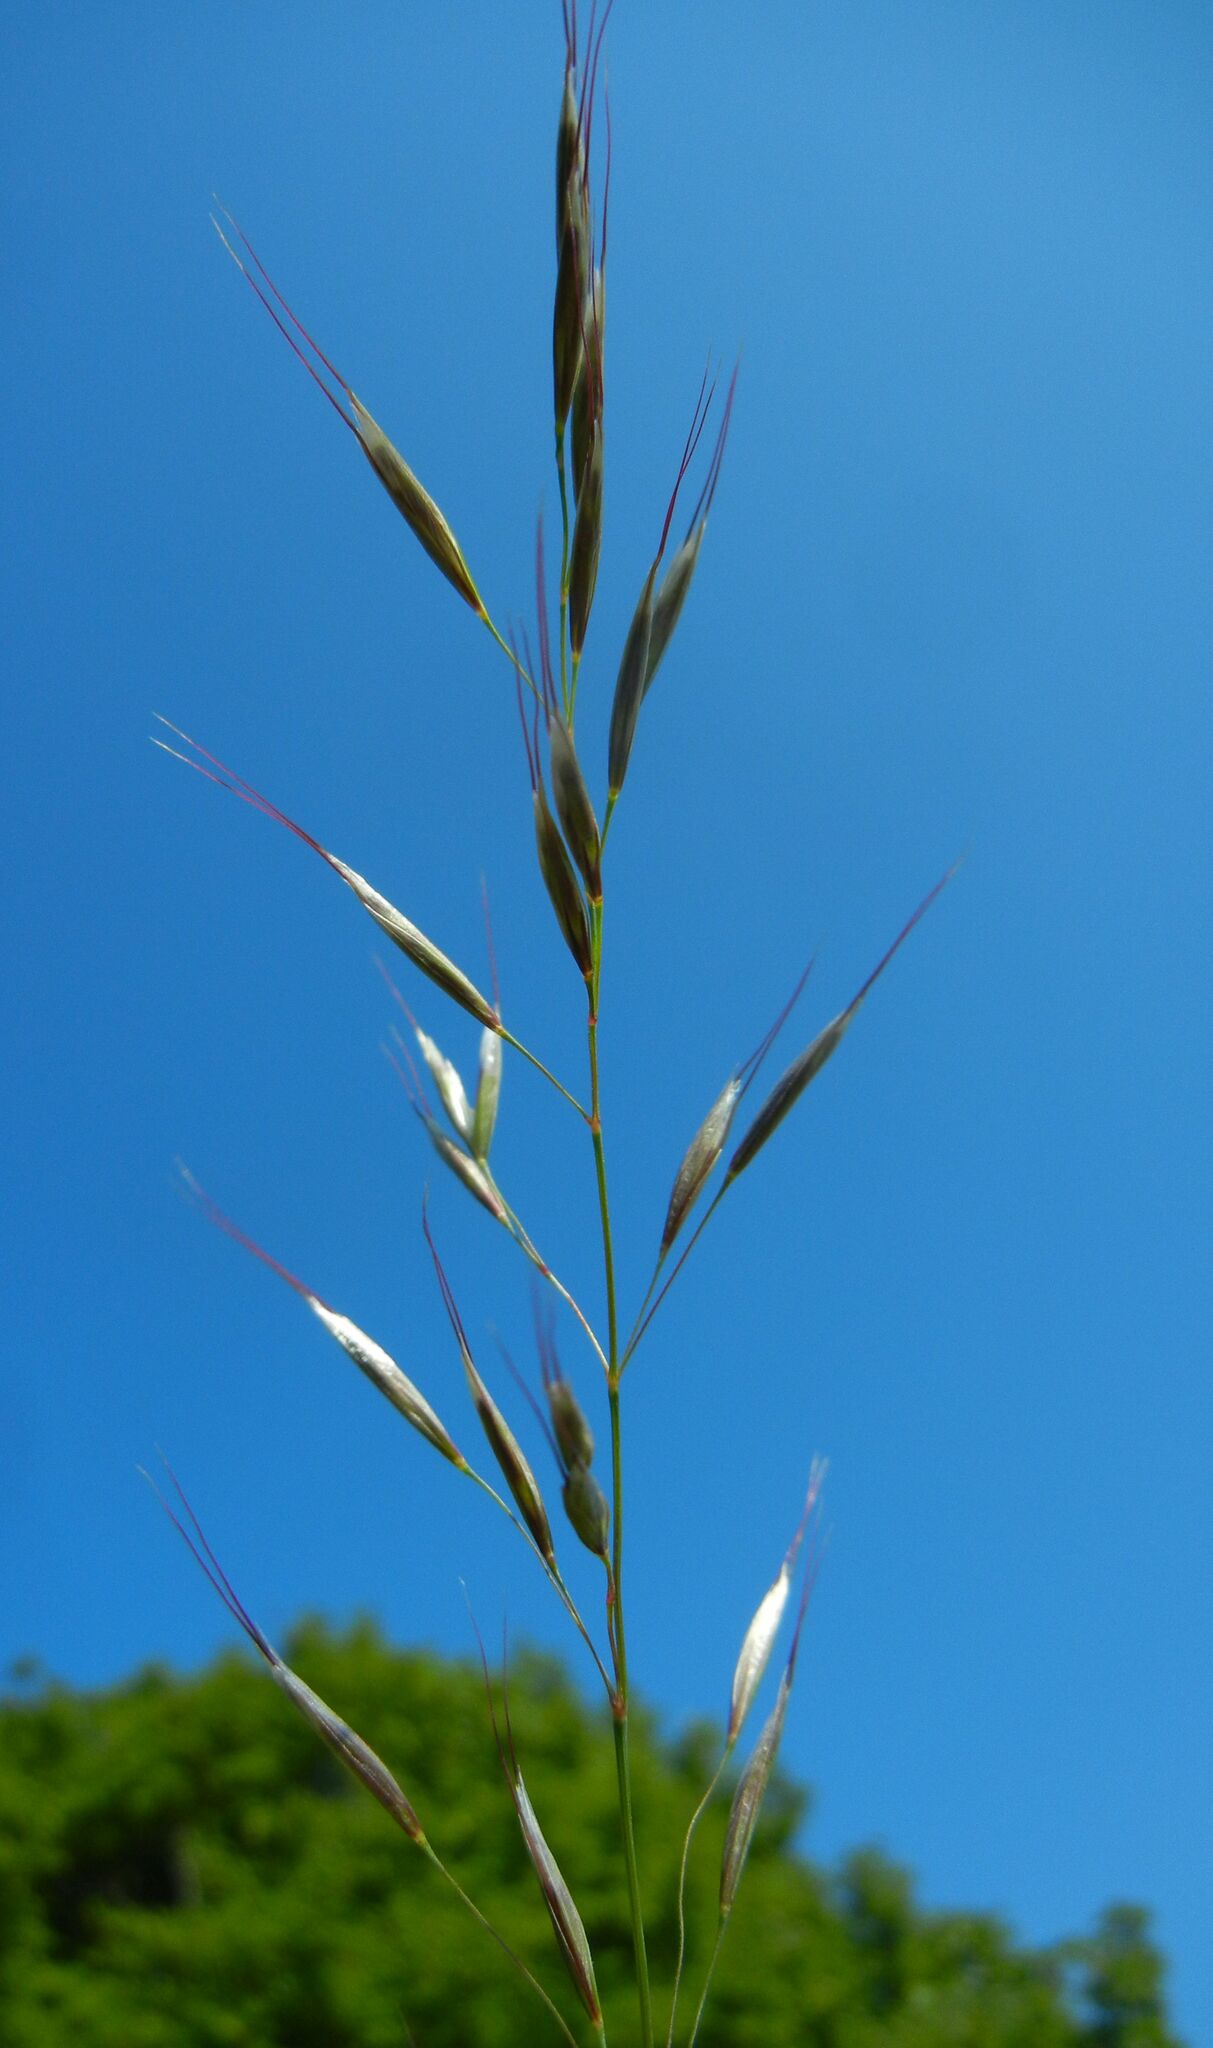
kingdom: Plantae
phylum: Tracheophyta
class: Liliopsida
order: Poales
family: Poaceae
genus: Avenula
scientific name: Avenula pubescens
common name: Downy alpine oatgrass
